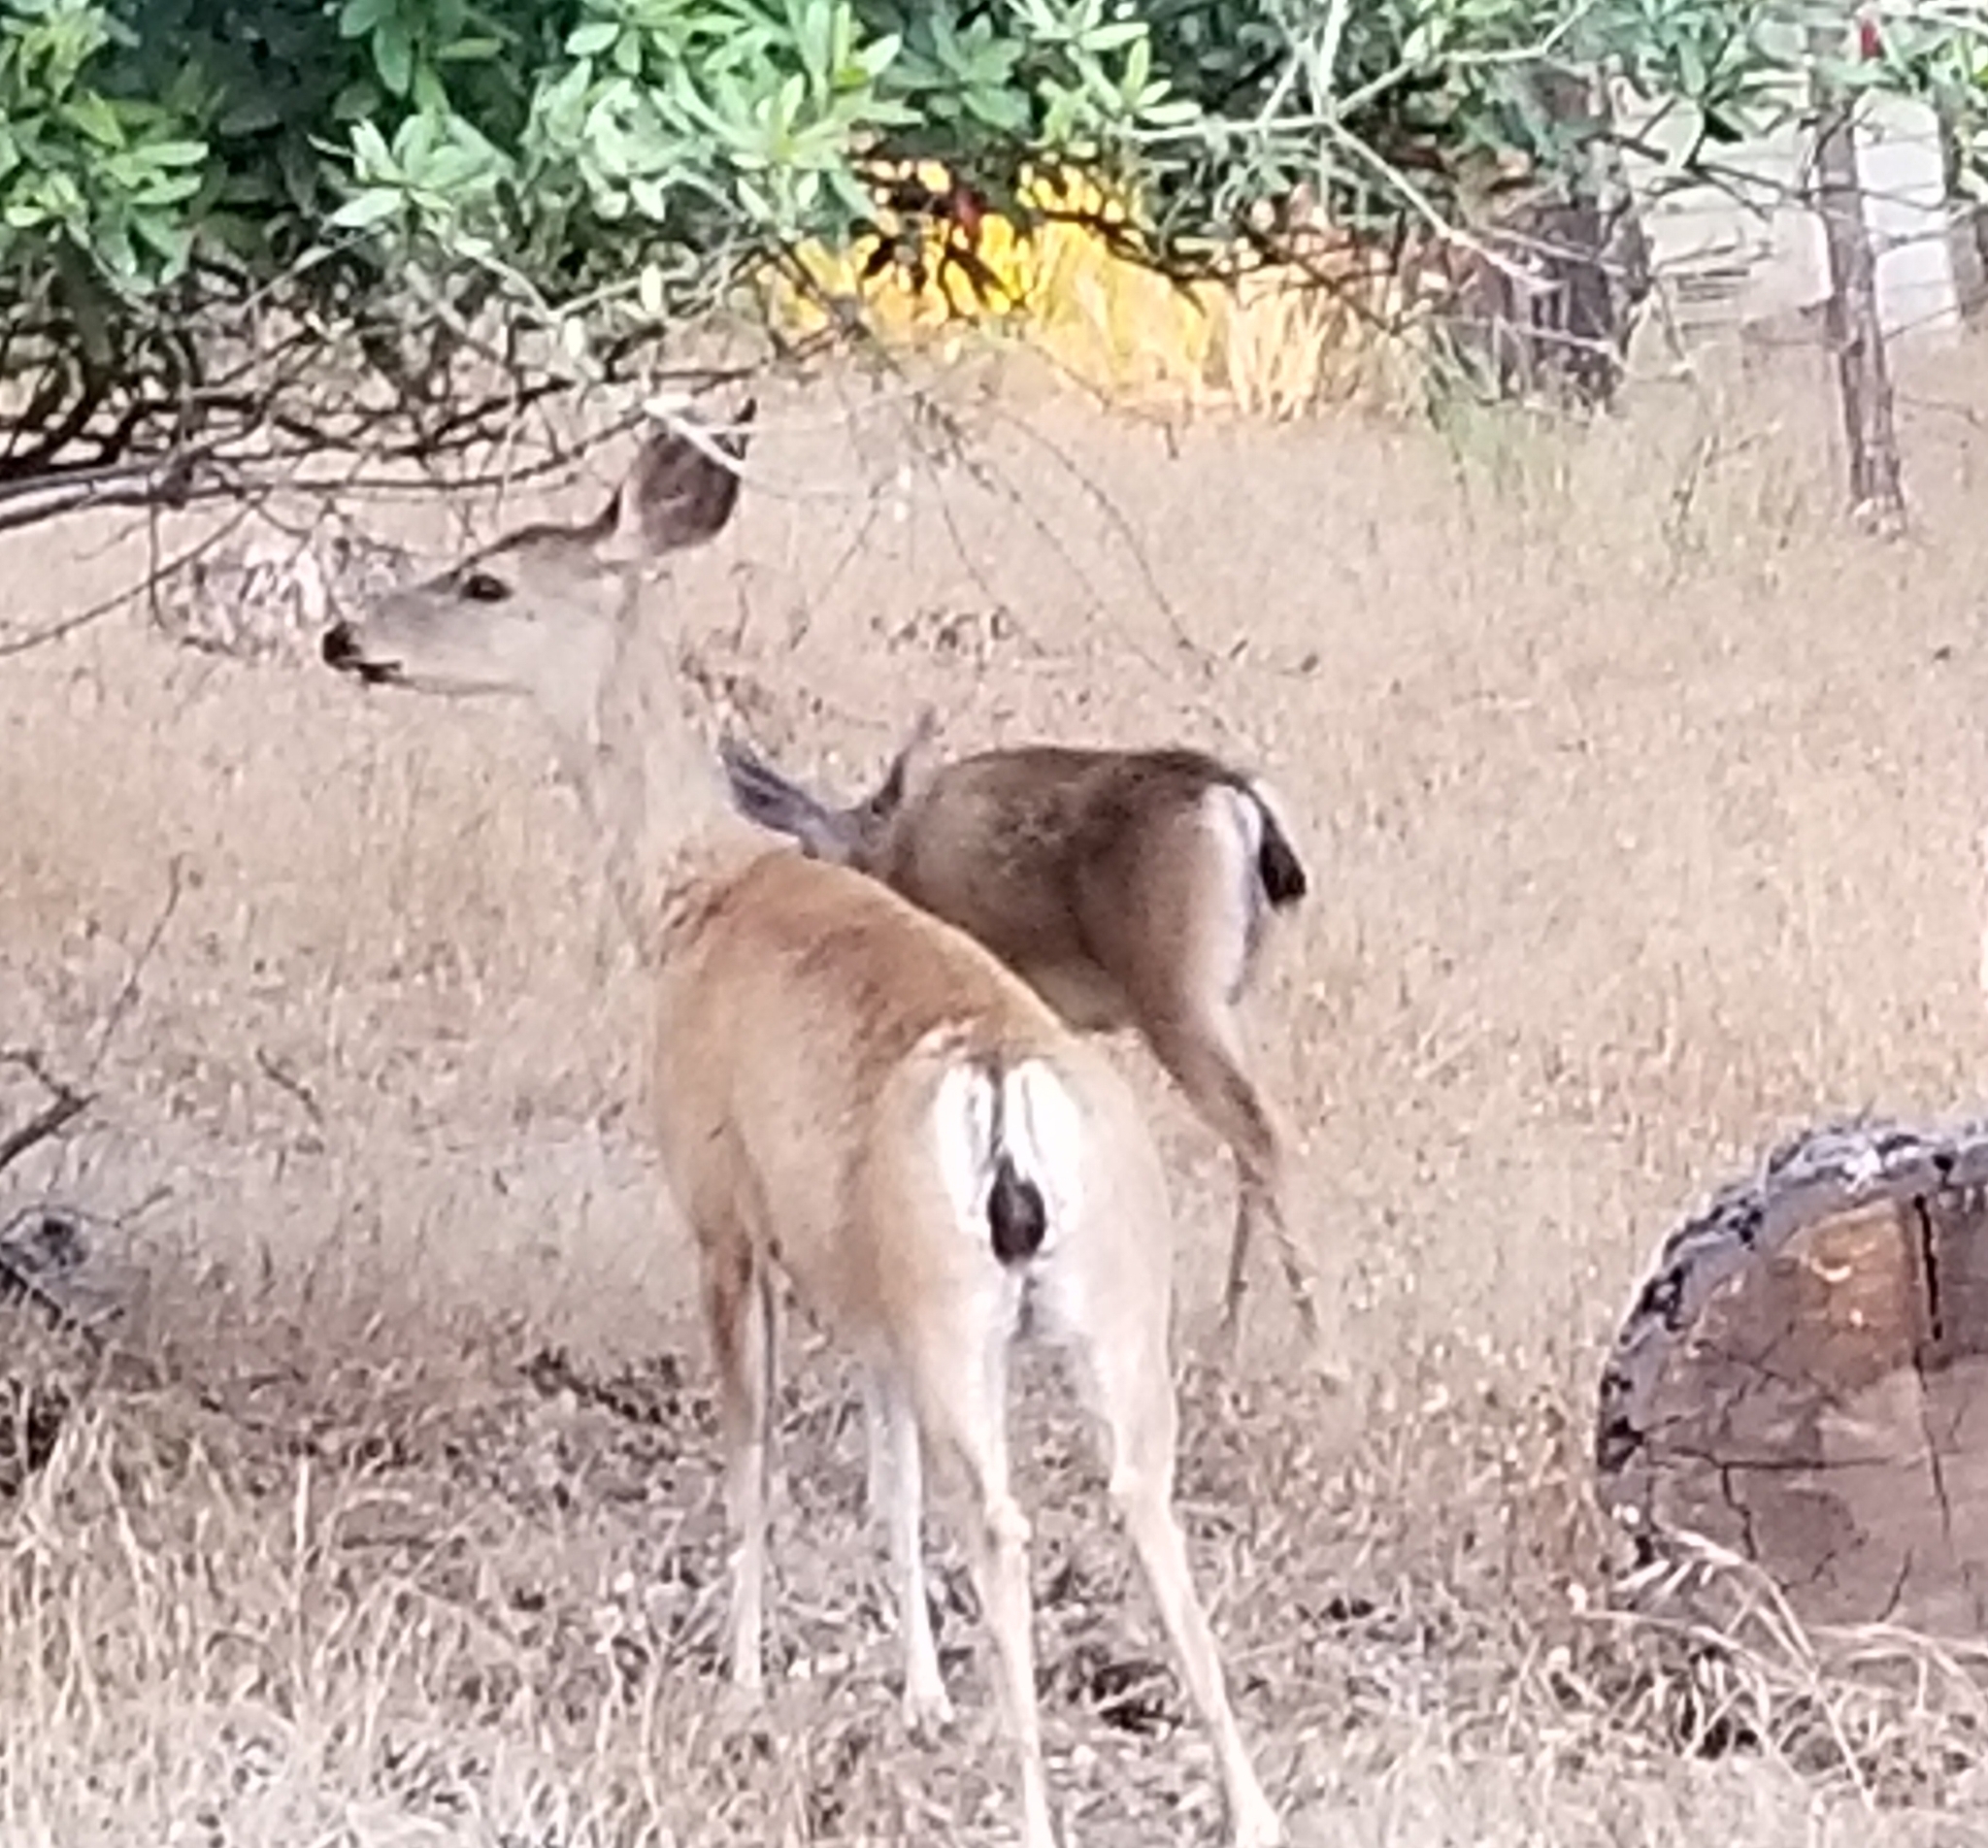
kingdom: Animalia
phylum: Chordata
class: Mammalia
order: Artiodactyla
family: Cervidae
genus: Odocoileus
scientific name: Odocoileus hemionus
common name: Mule deer
